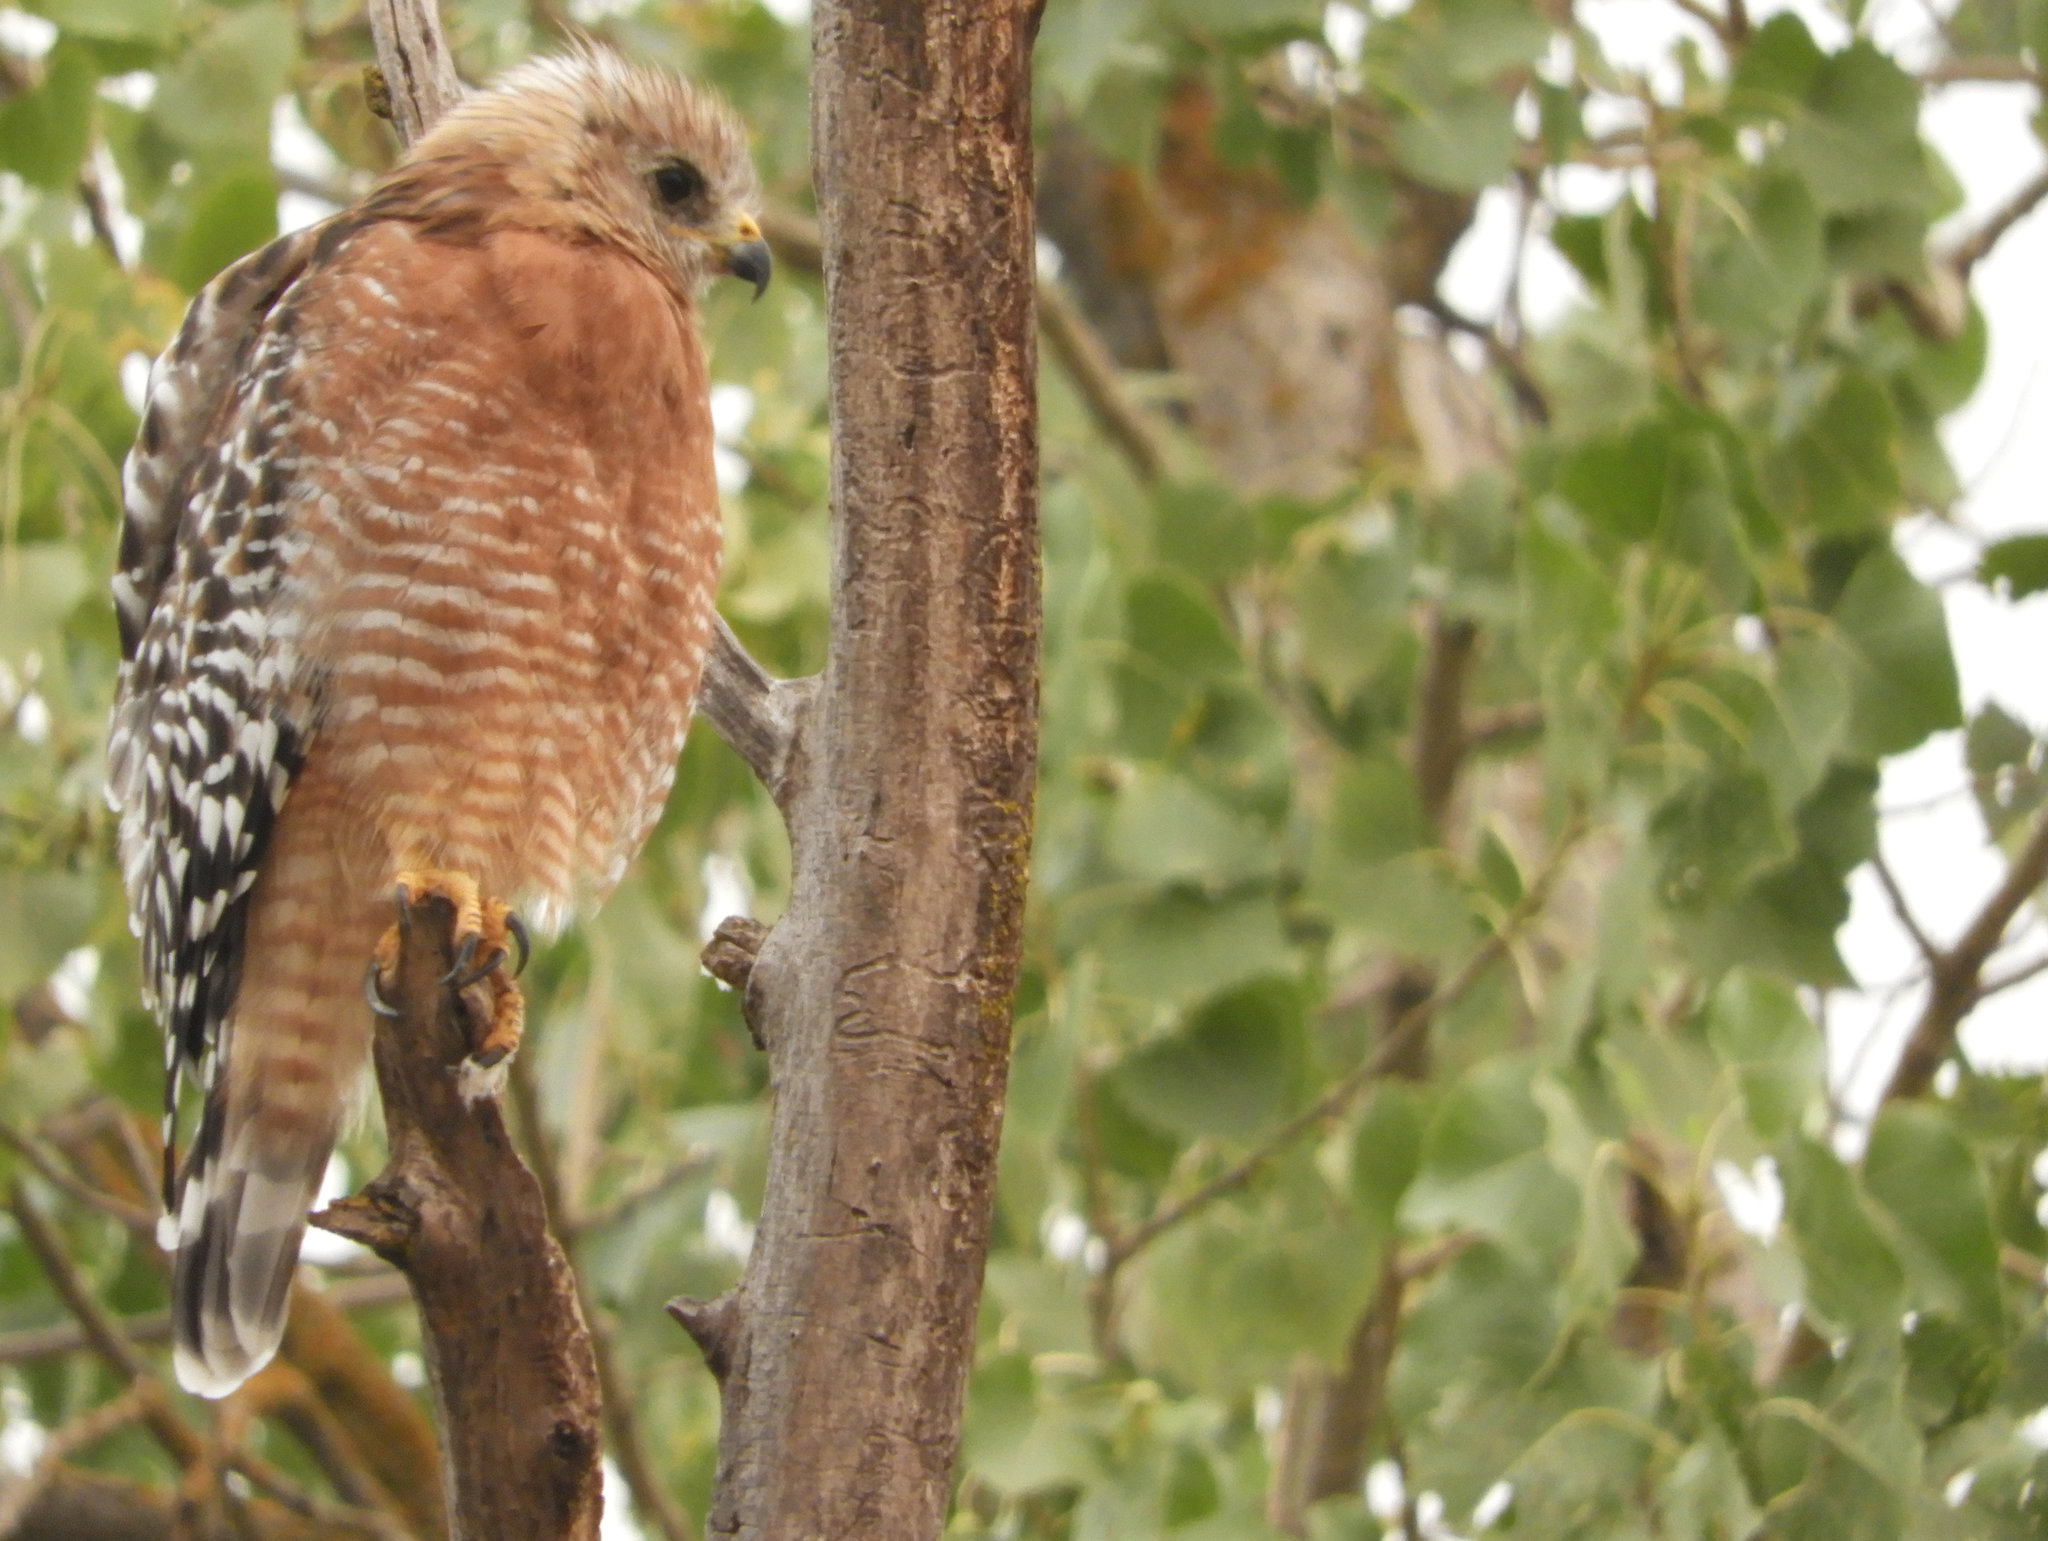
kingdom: Animalia
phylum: Chordata
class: Aves
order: Accipitriformes
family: Accipitridae
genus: Buteo
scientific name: Buteo lineatus
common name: Red-shouldered hawk
